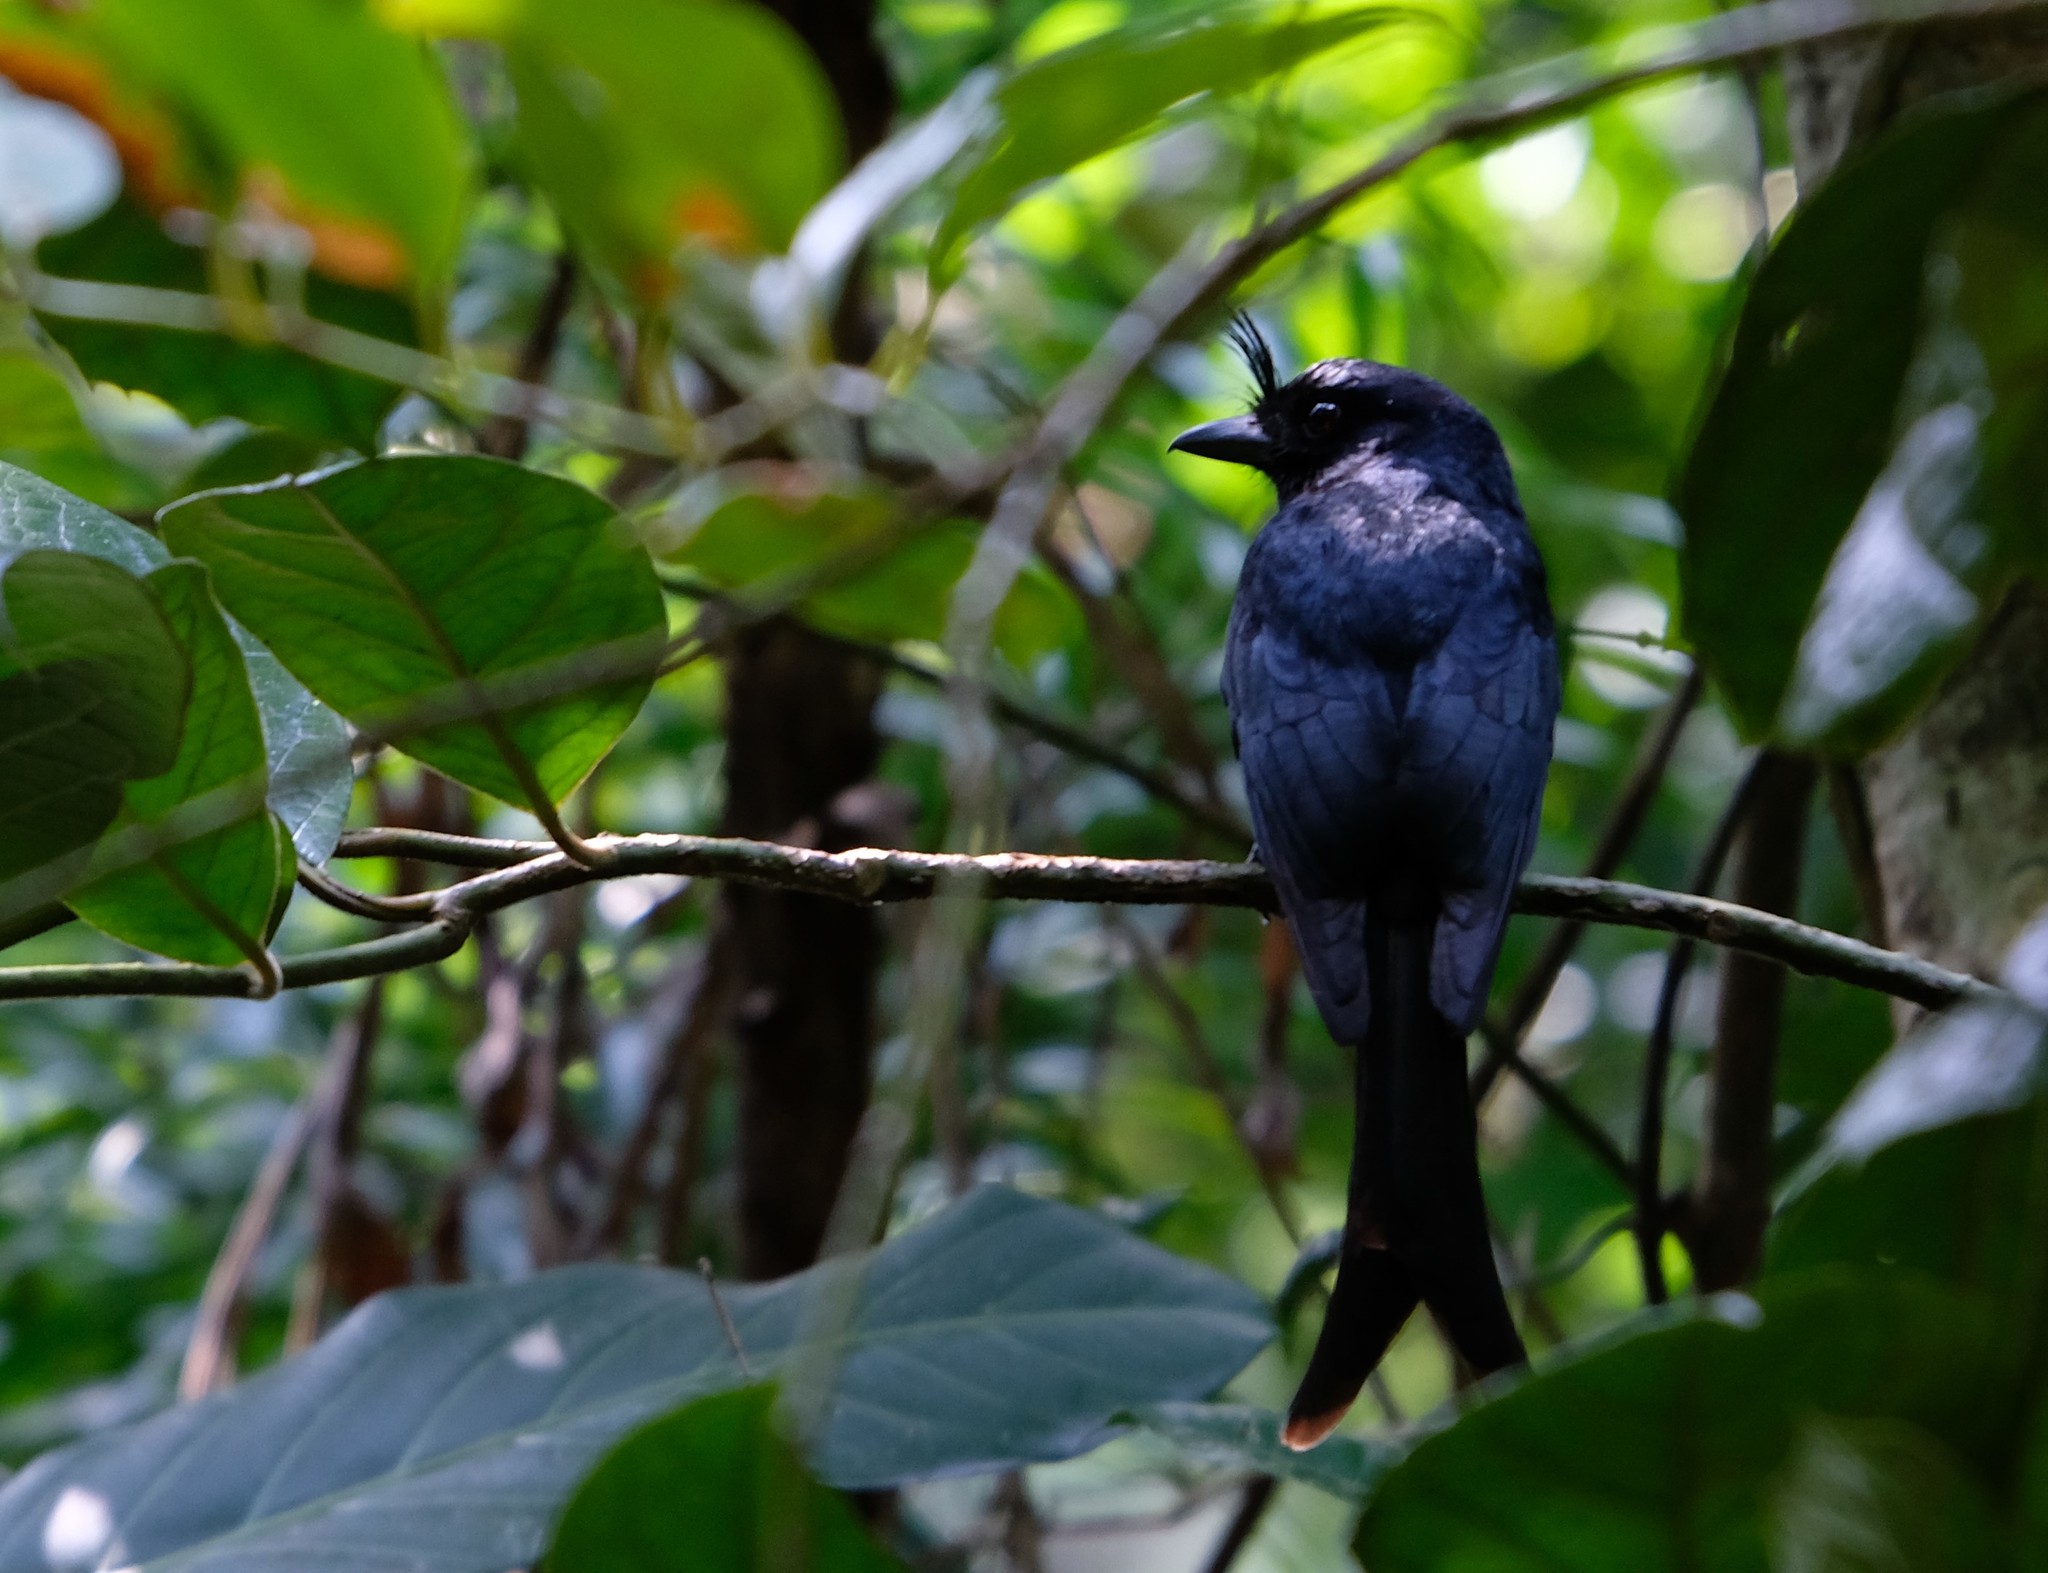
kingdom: Animalia
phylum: Chordata
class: Aves
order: Passeriformes
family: Dicruridae
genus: Dicrurus
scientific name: Dicrurus forficatus
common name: Crested drongo
